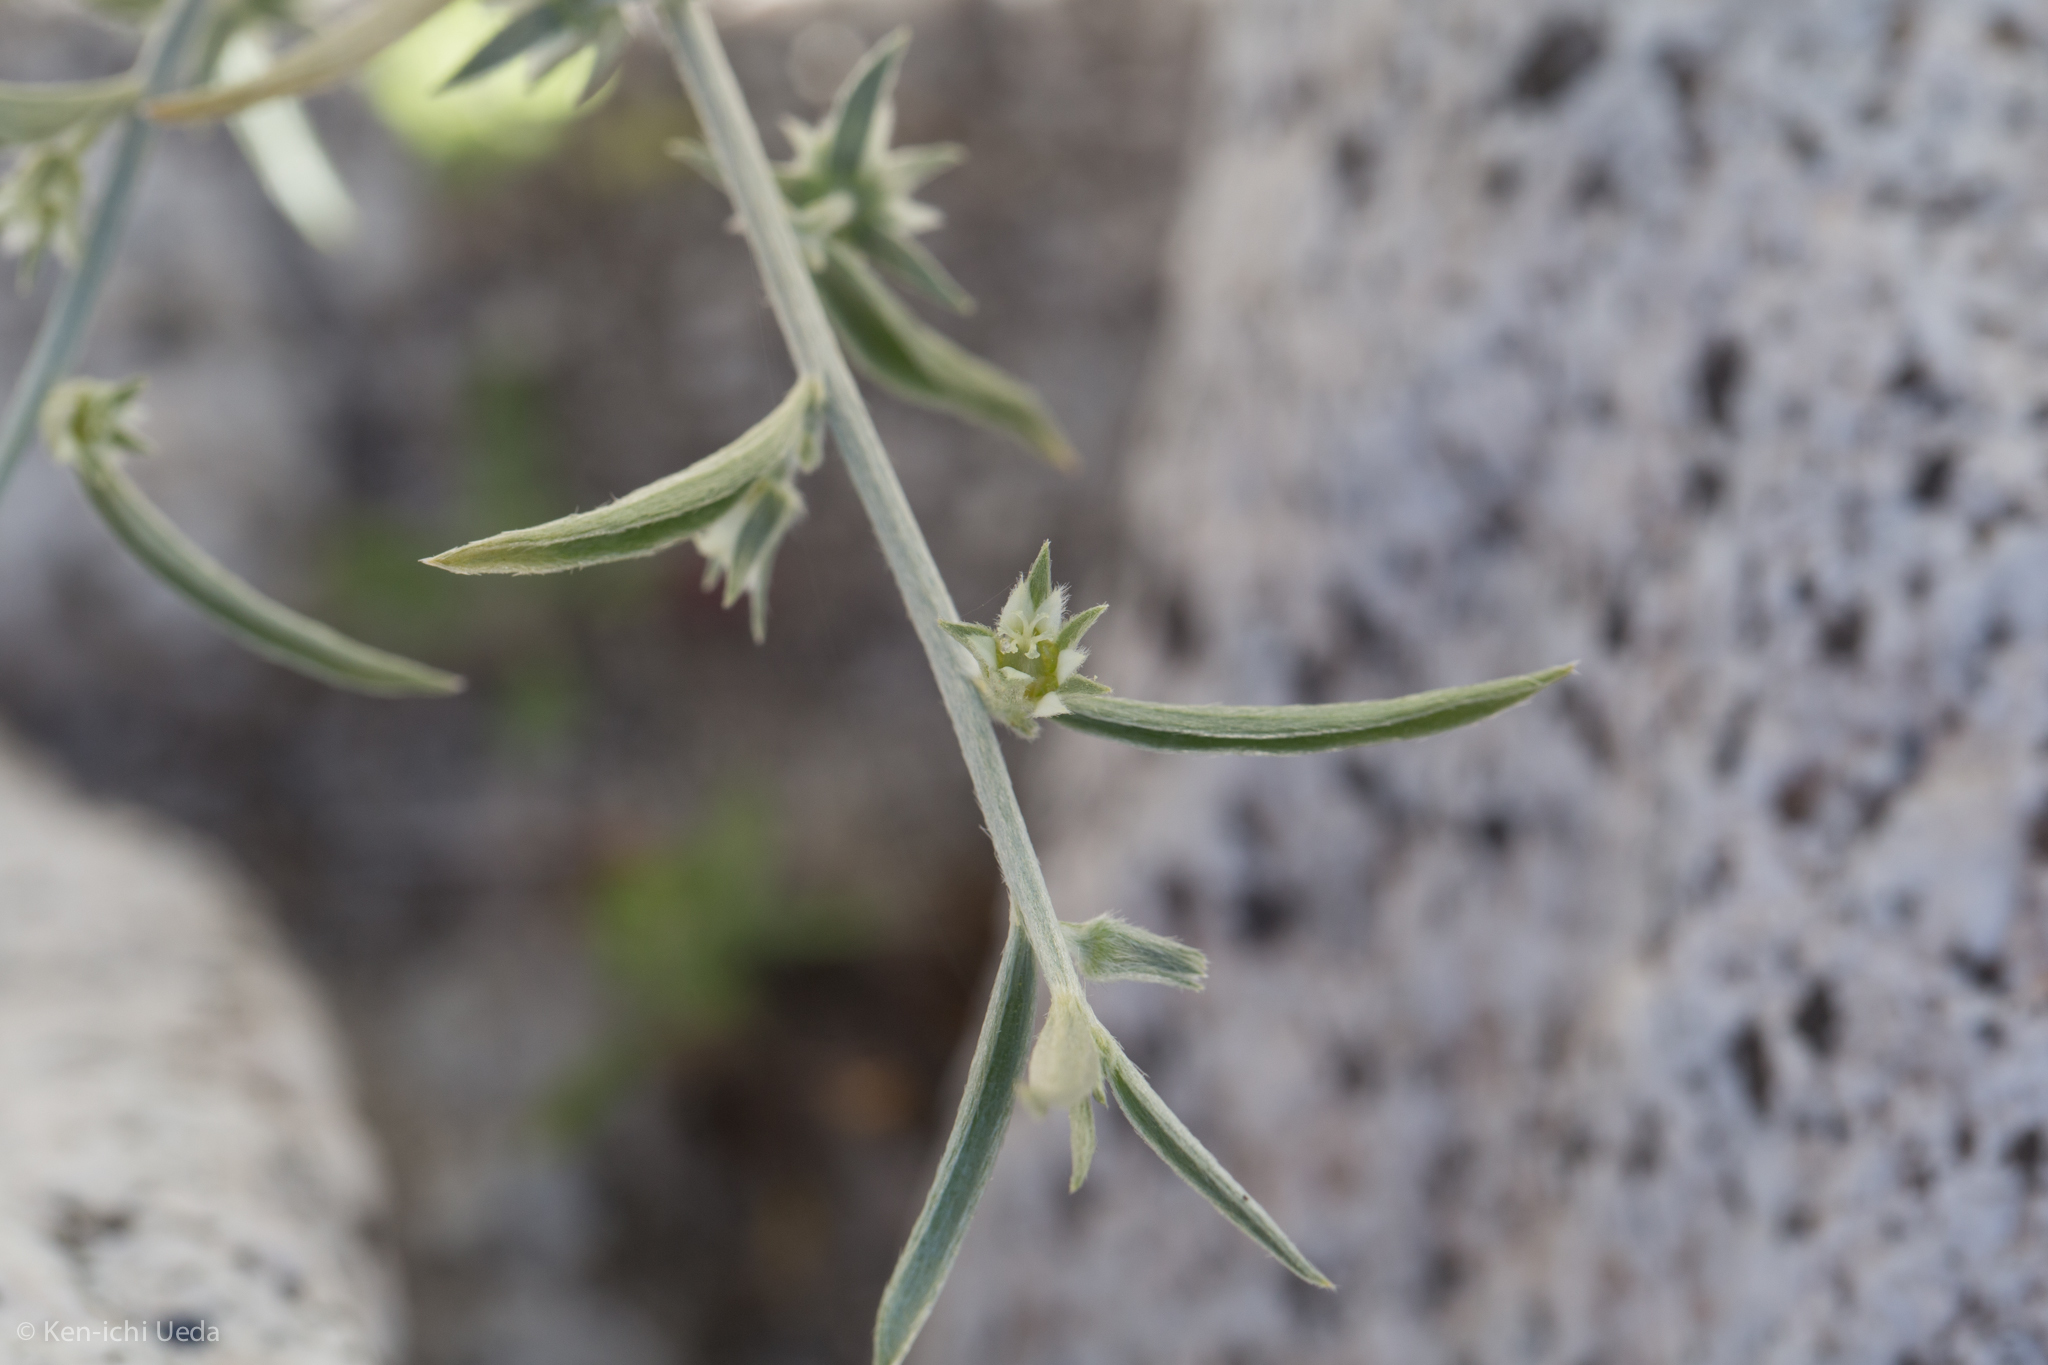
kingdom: Plantae
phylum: Tracheophyta
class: Magnoliopsida
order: Malpighiales
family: Euphorbiaceae
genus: Ditaxis
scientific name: Ditaxis lanceolata
